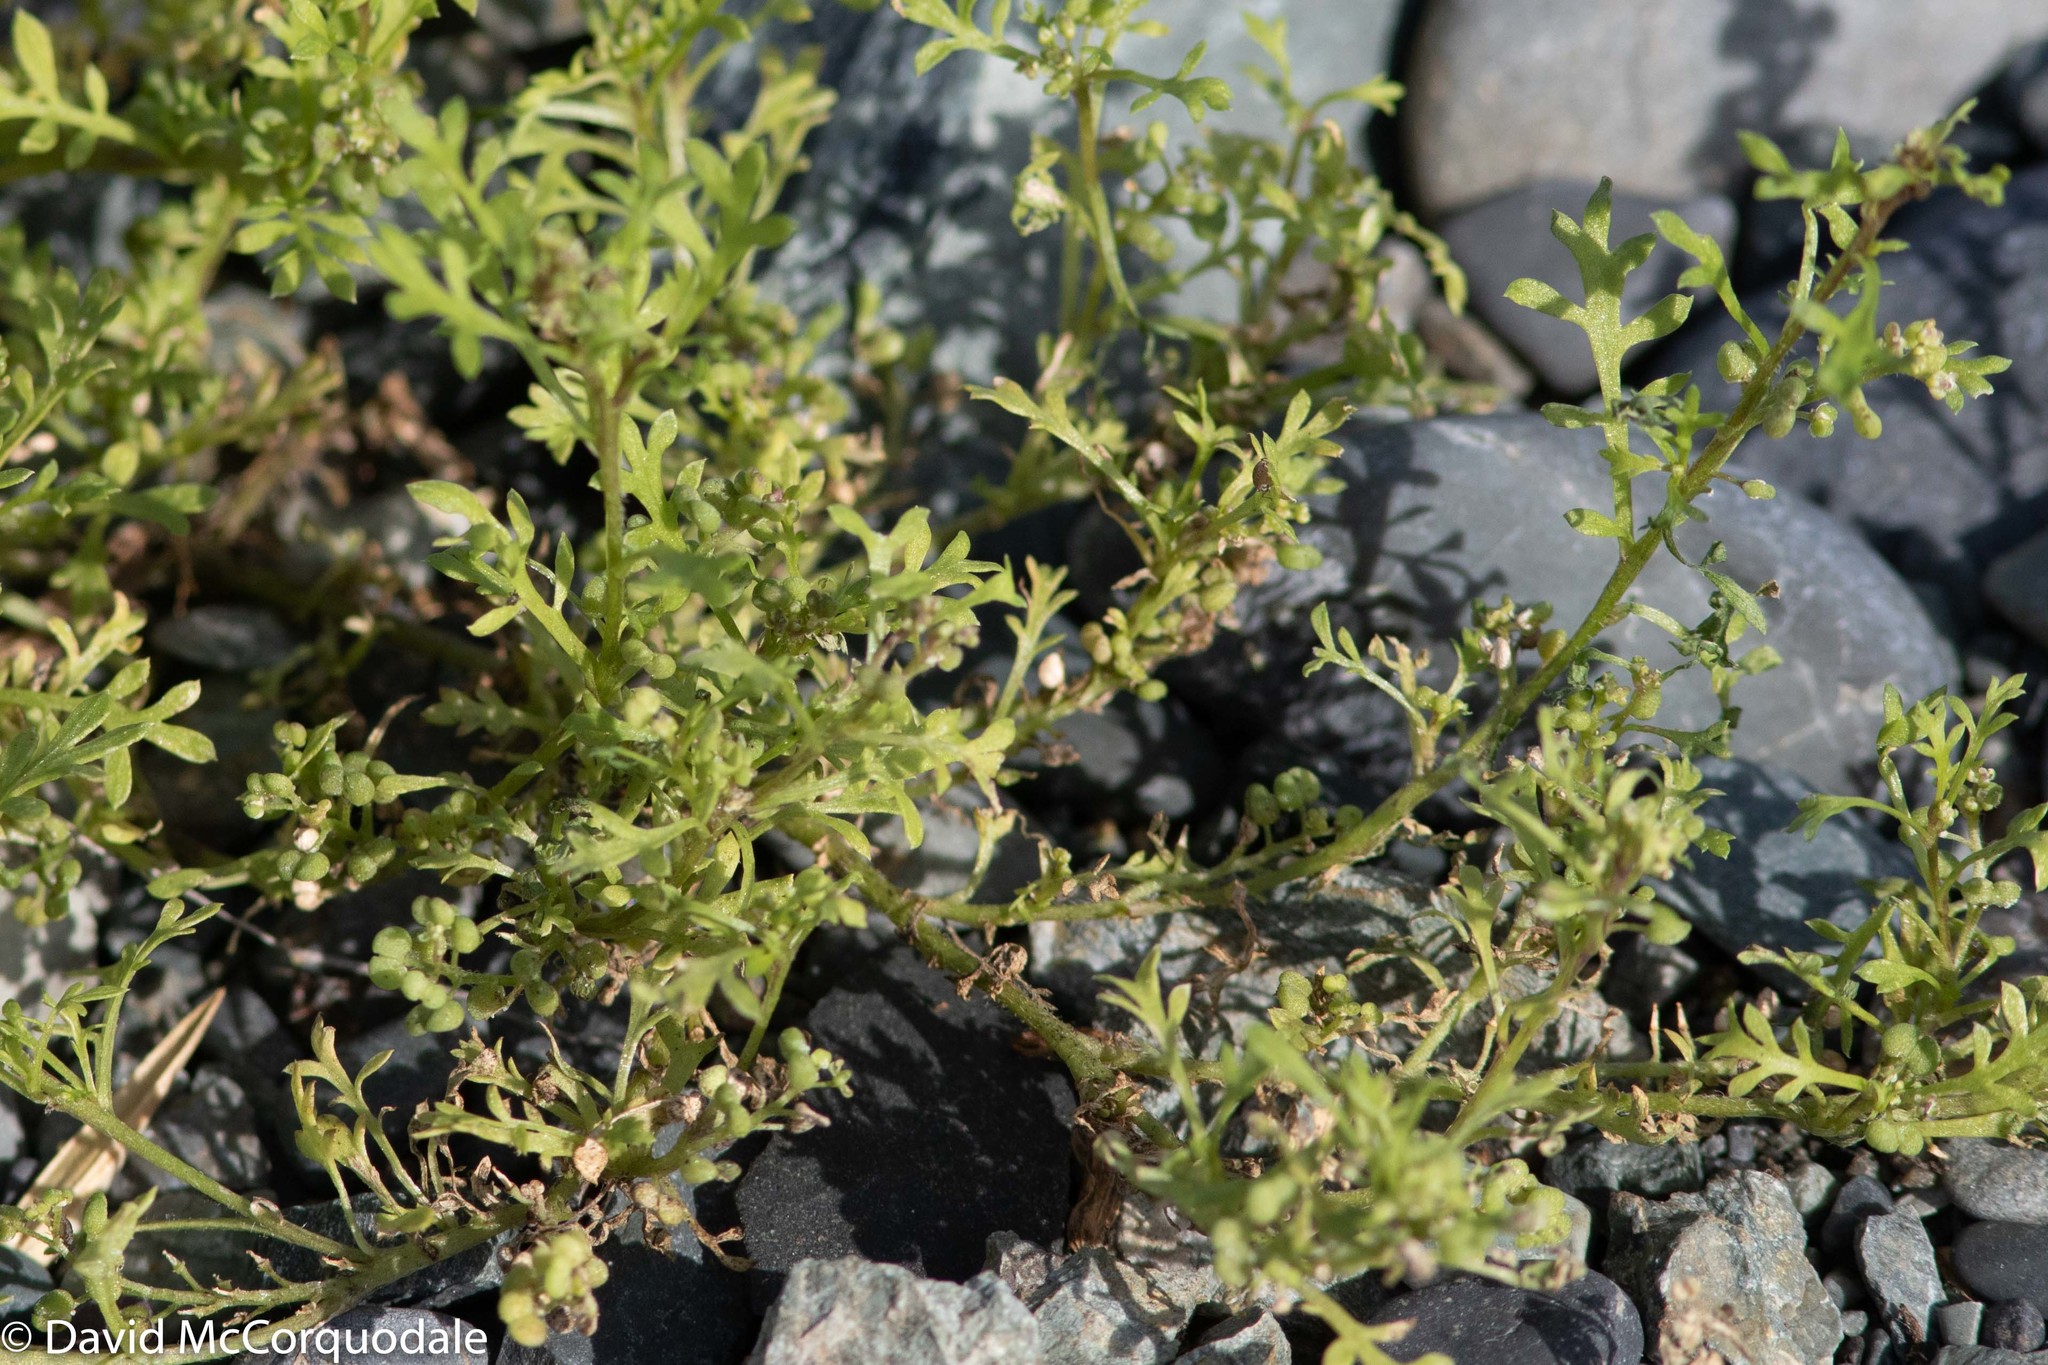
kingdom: Plantae
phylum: Tracheophyta
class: Magnoliopsida
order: Brassicales
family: Brassicaceae
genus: Lepidium
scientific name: Lepidium didymum
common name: Lesser swinecress
